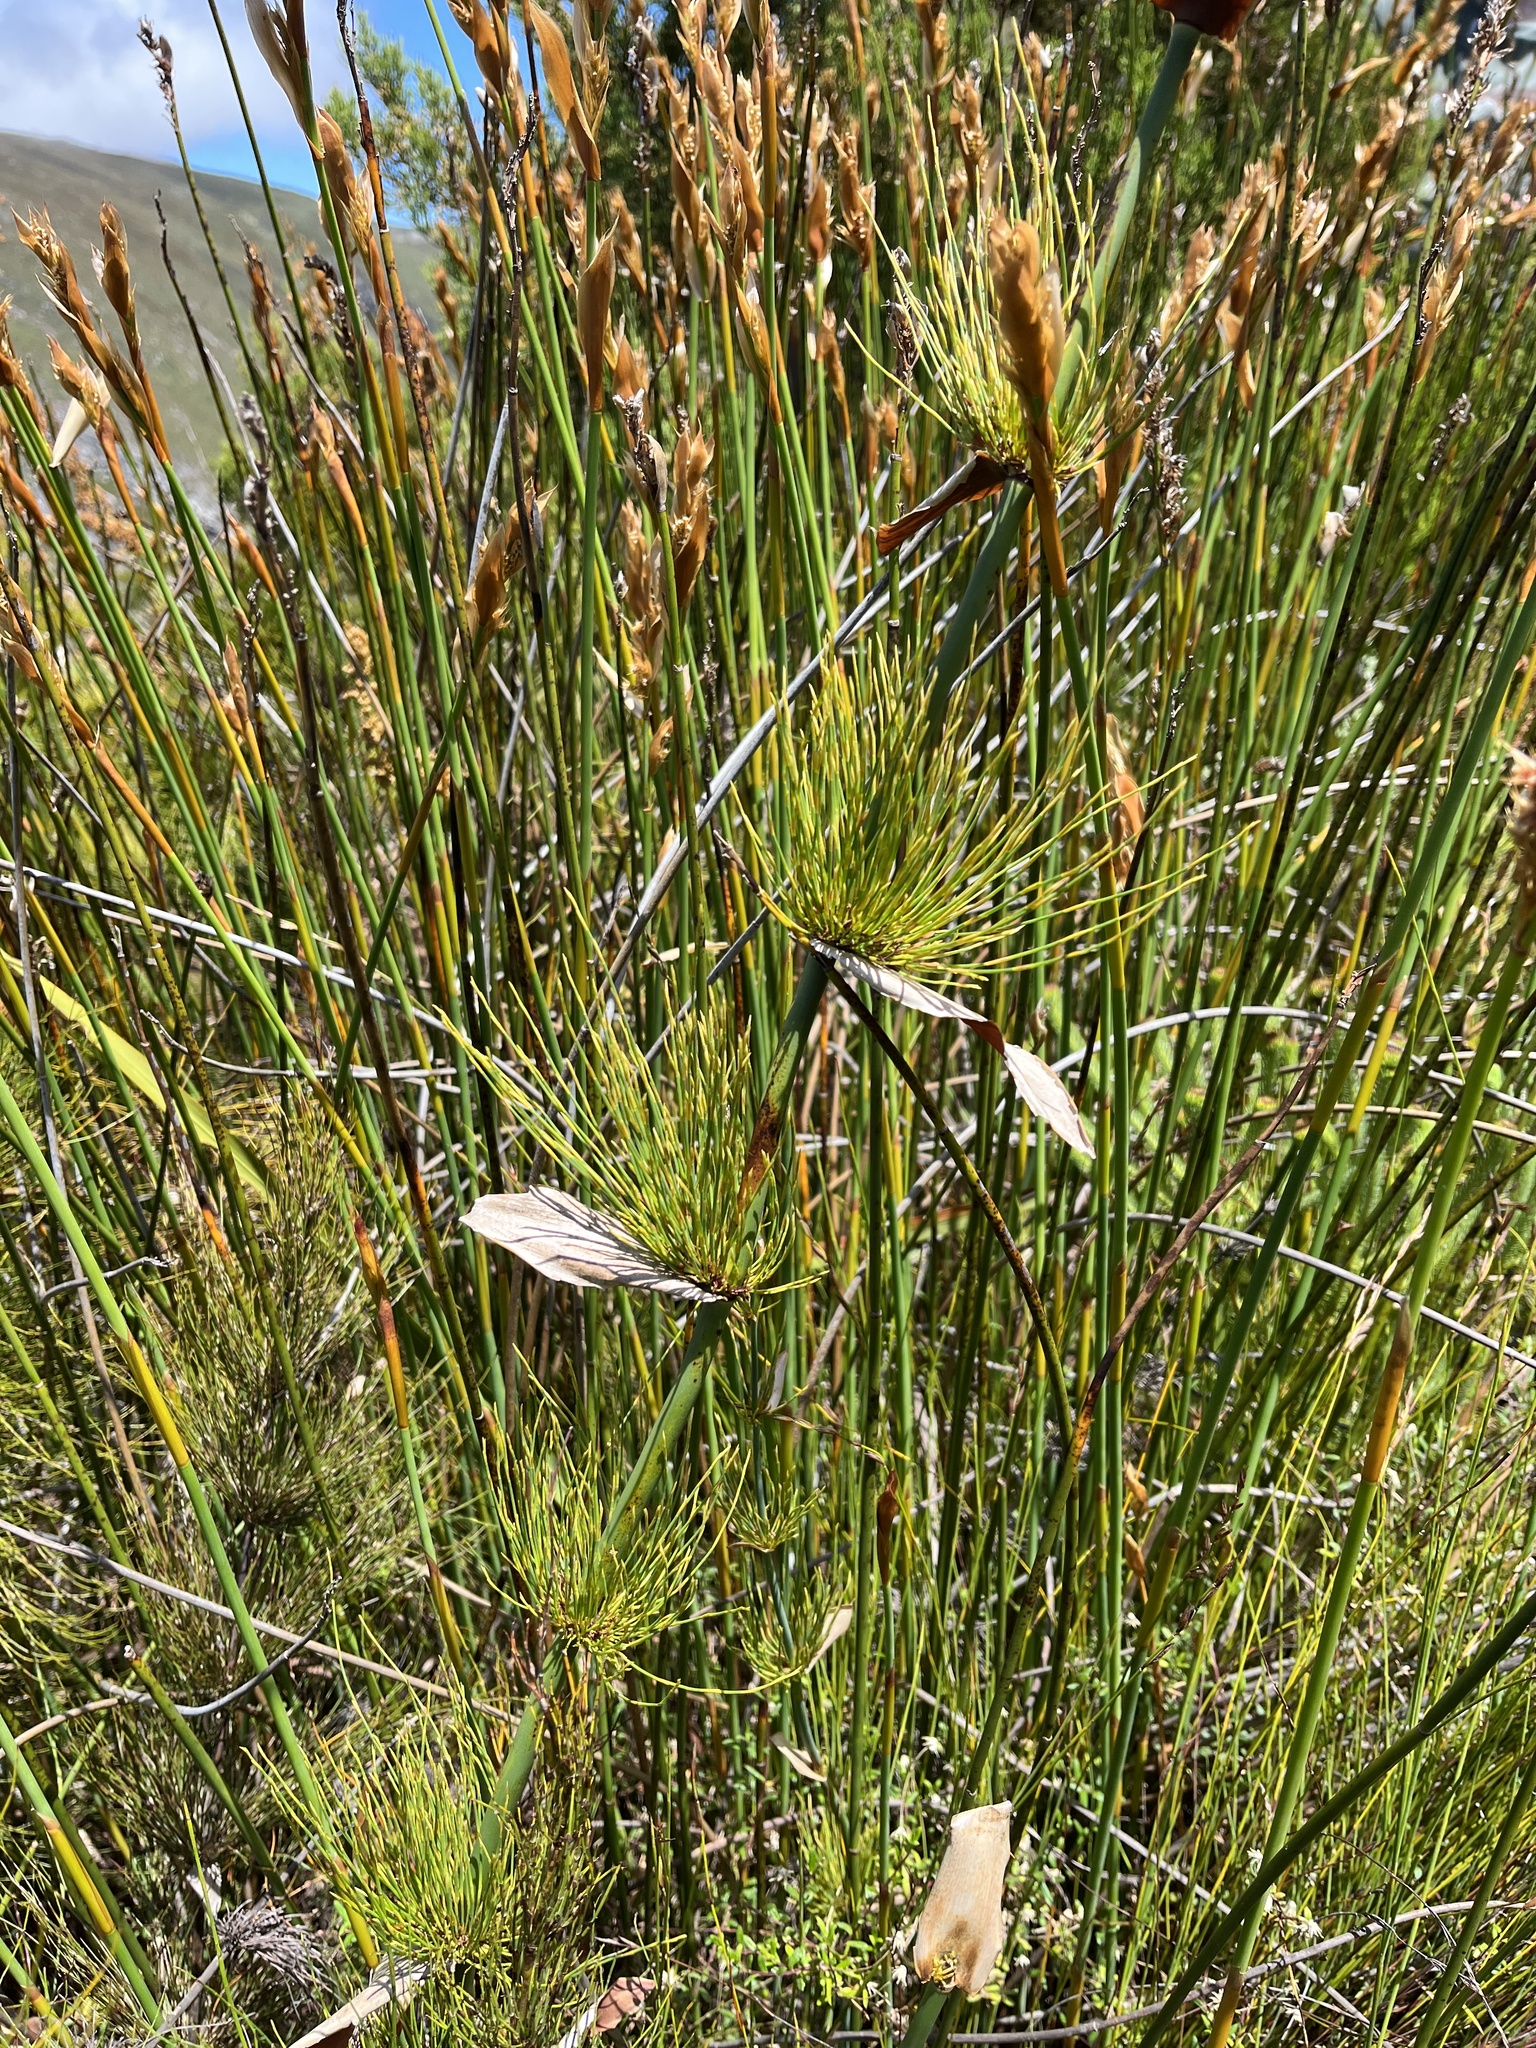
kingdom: Plantae
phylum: Tracheophyta
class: Liliopsida
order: Poales
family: Restionaceae
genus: Elegia
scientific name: Elegia capensis
